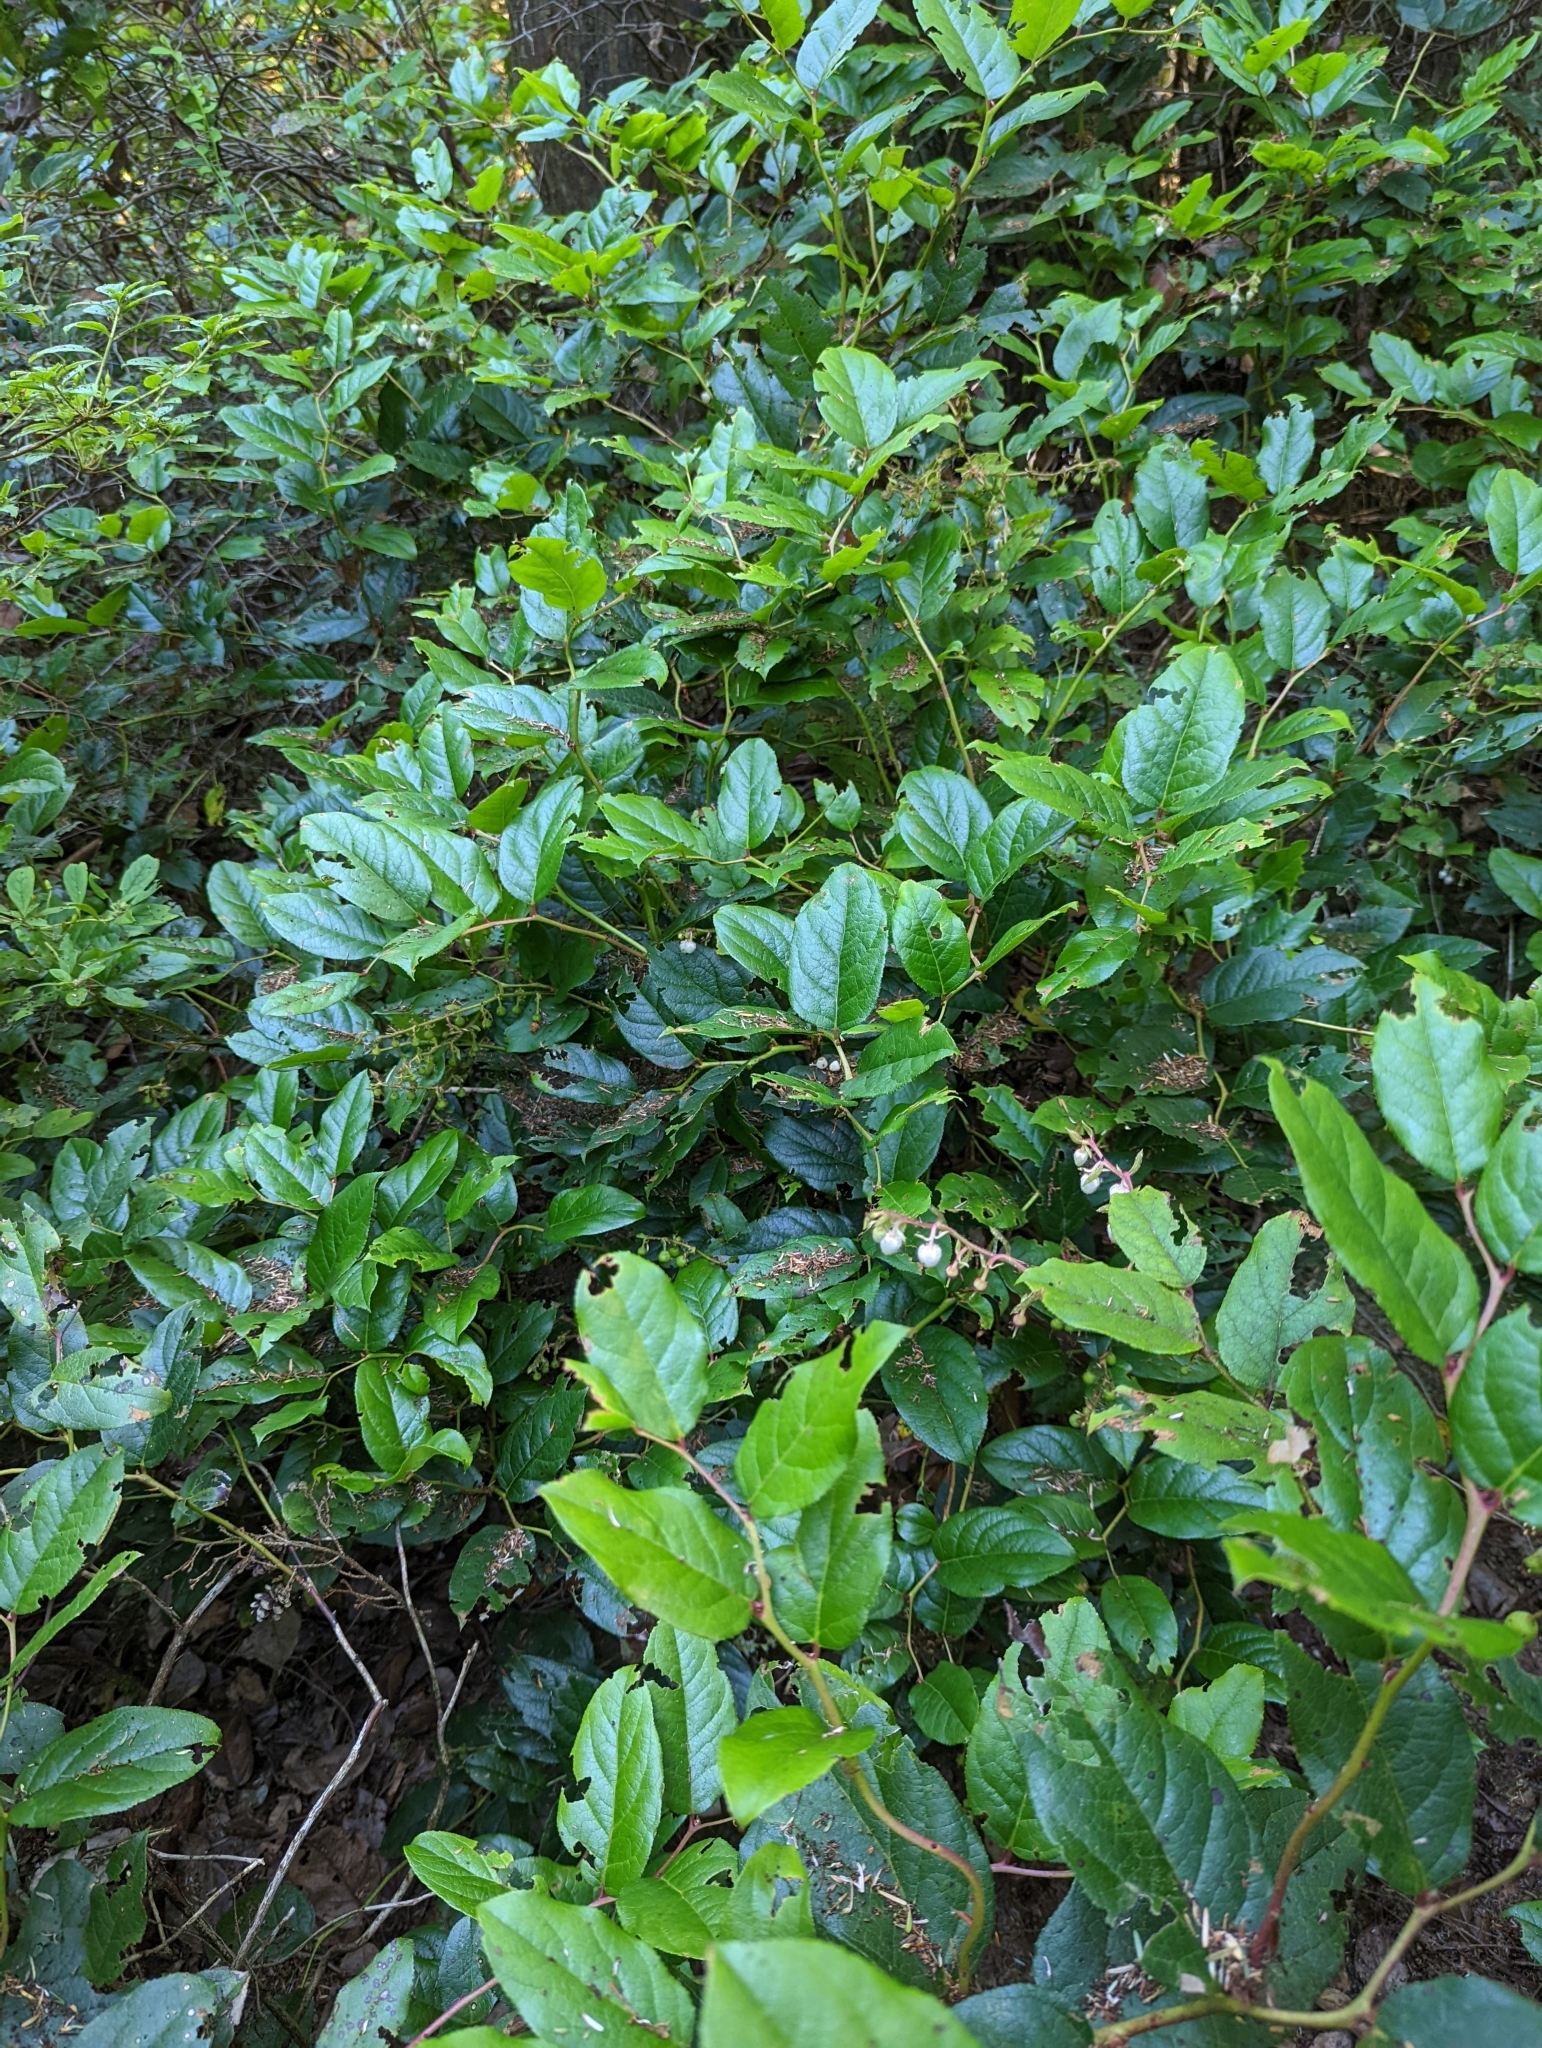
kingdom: Plantae
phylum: Tracheophyta
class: Magnoliopsida
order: Ericales
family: Ericaceae
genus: Gaultheria
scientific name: Gaultheria shallon
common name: Shallon
